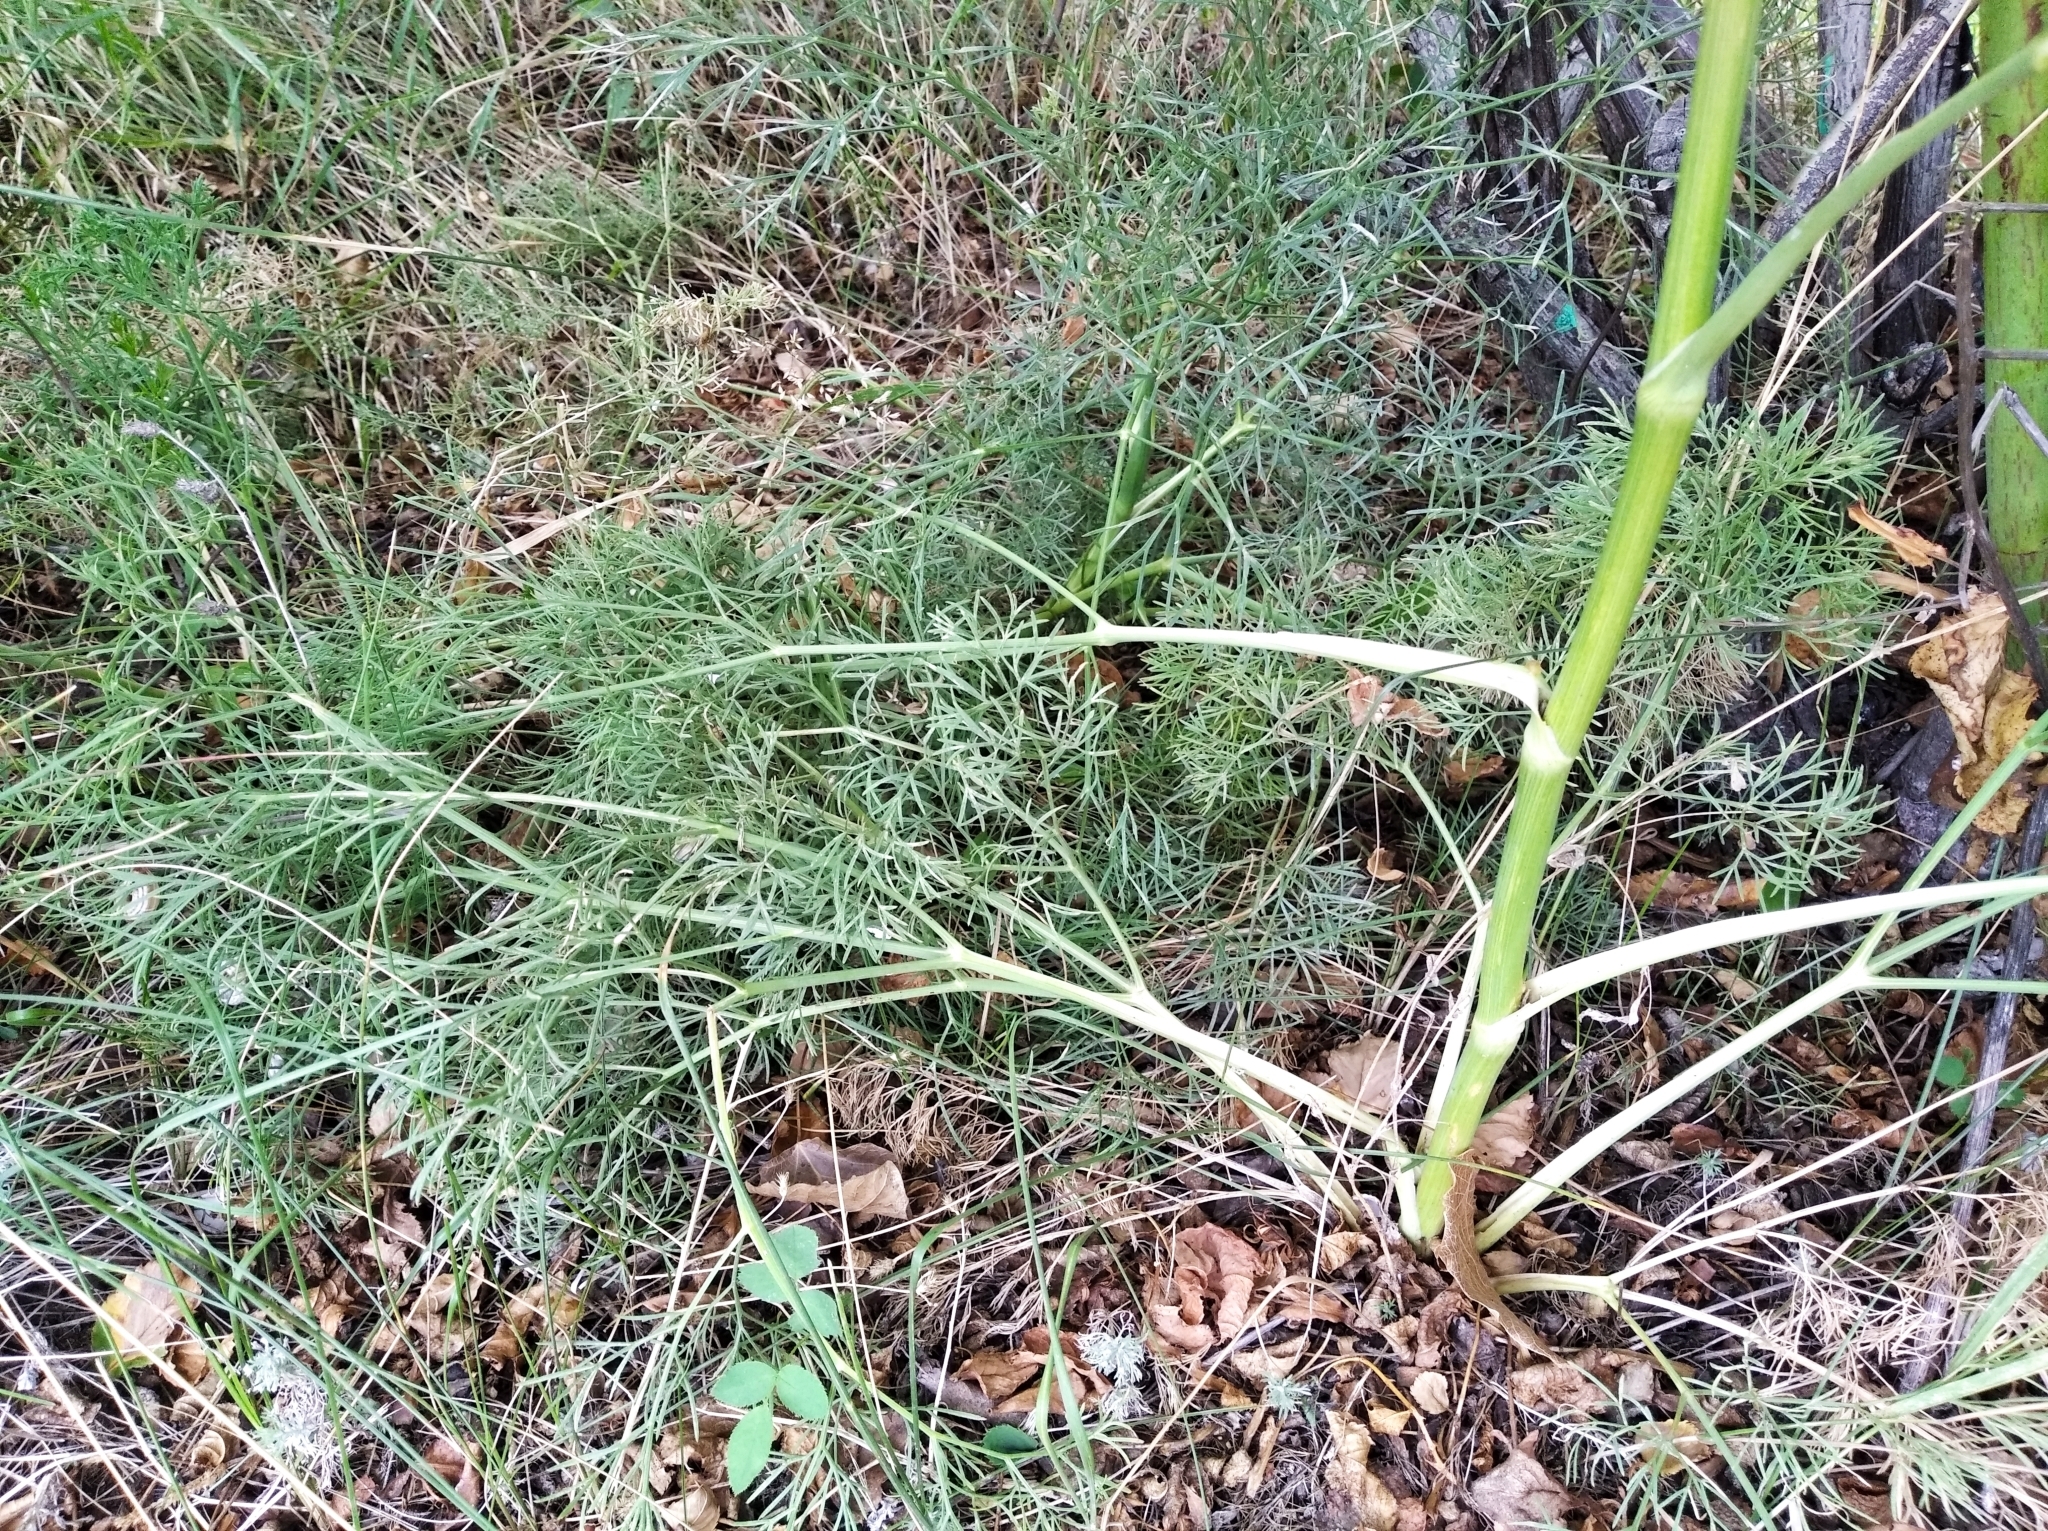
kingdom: Plantae
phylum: Tracheophyta
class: Magnoliopsida
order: Apiales
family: Apiaceae
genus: Seseli
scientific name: Seseli arenarium
